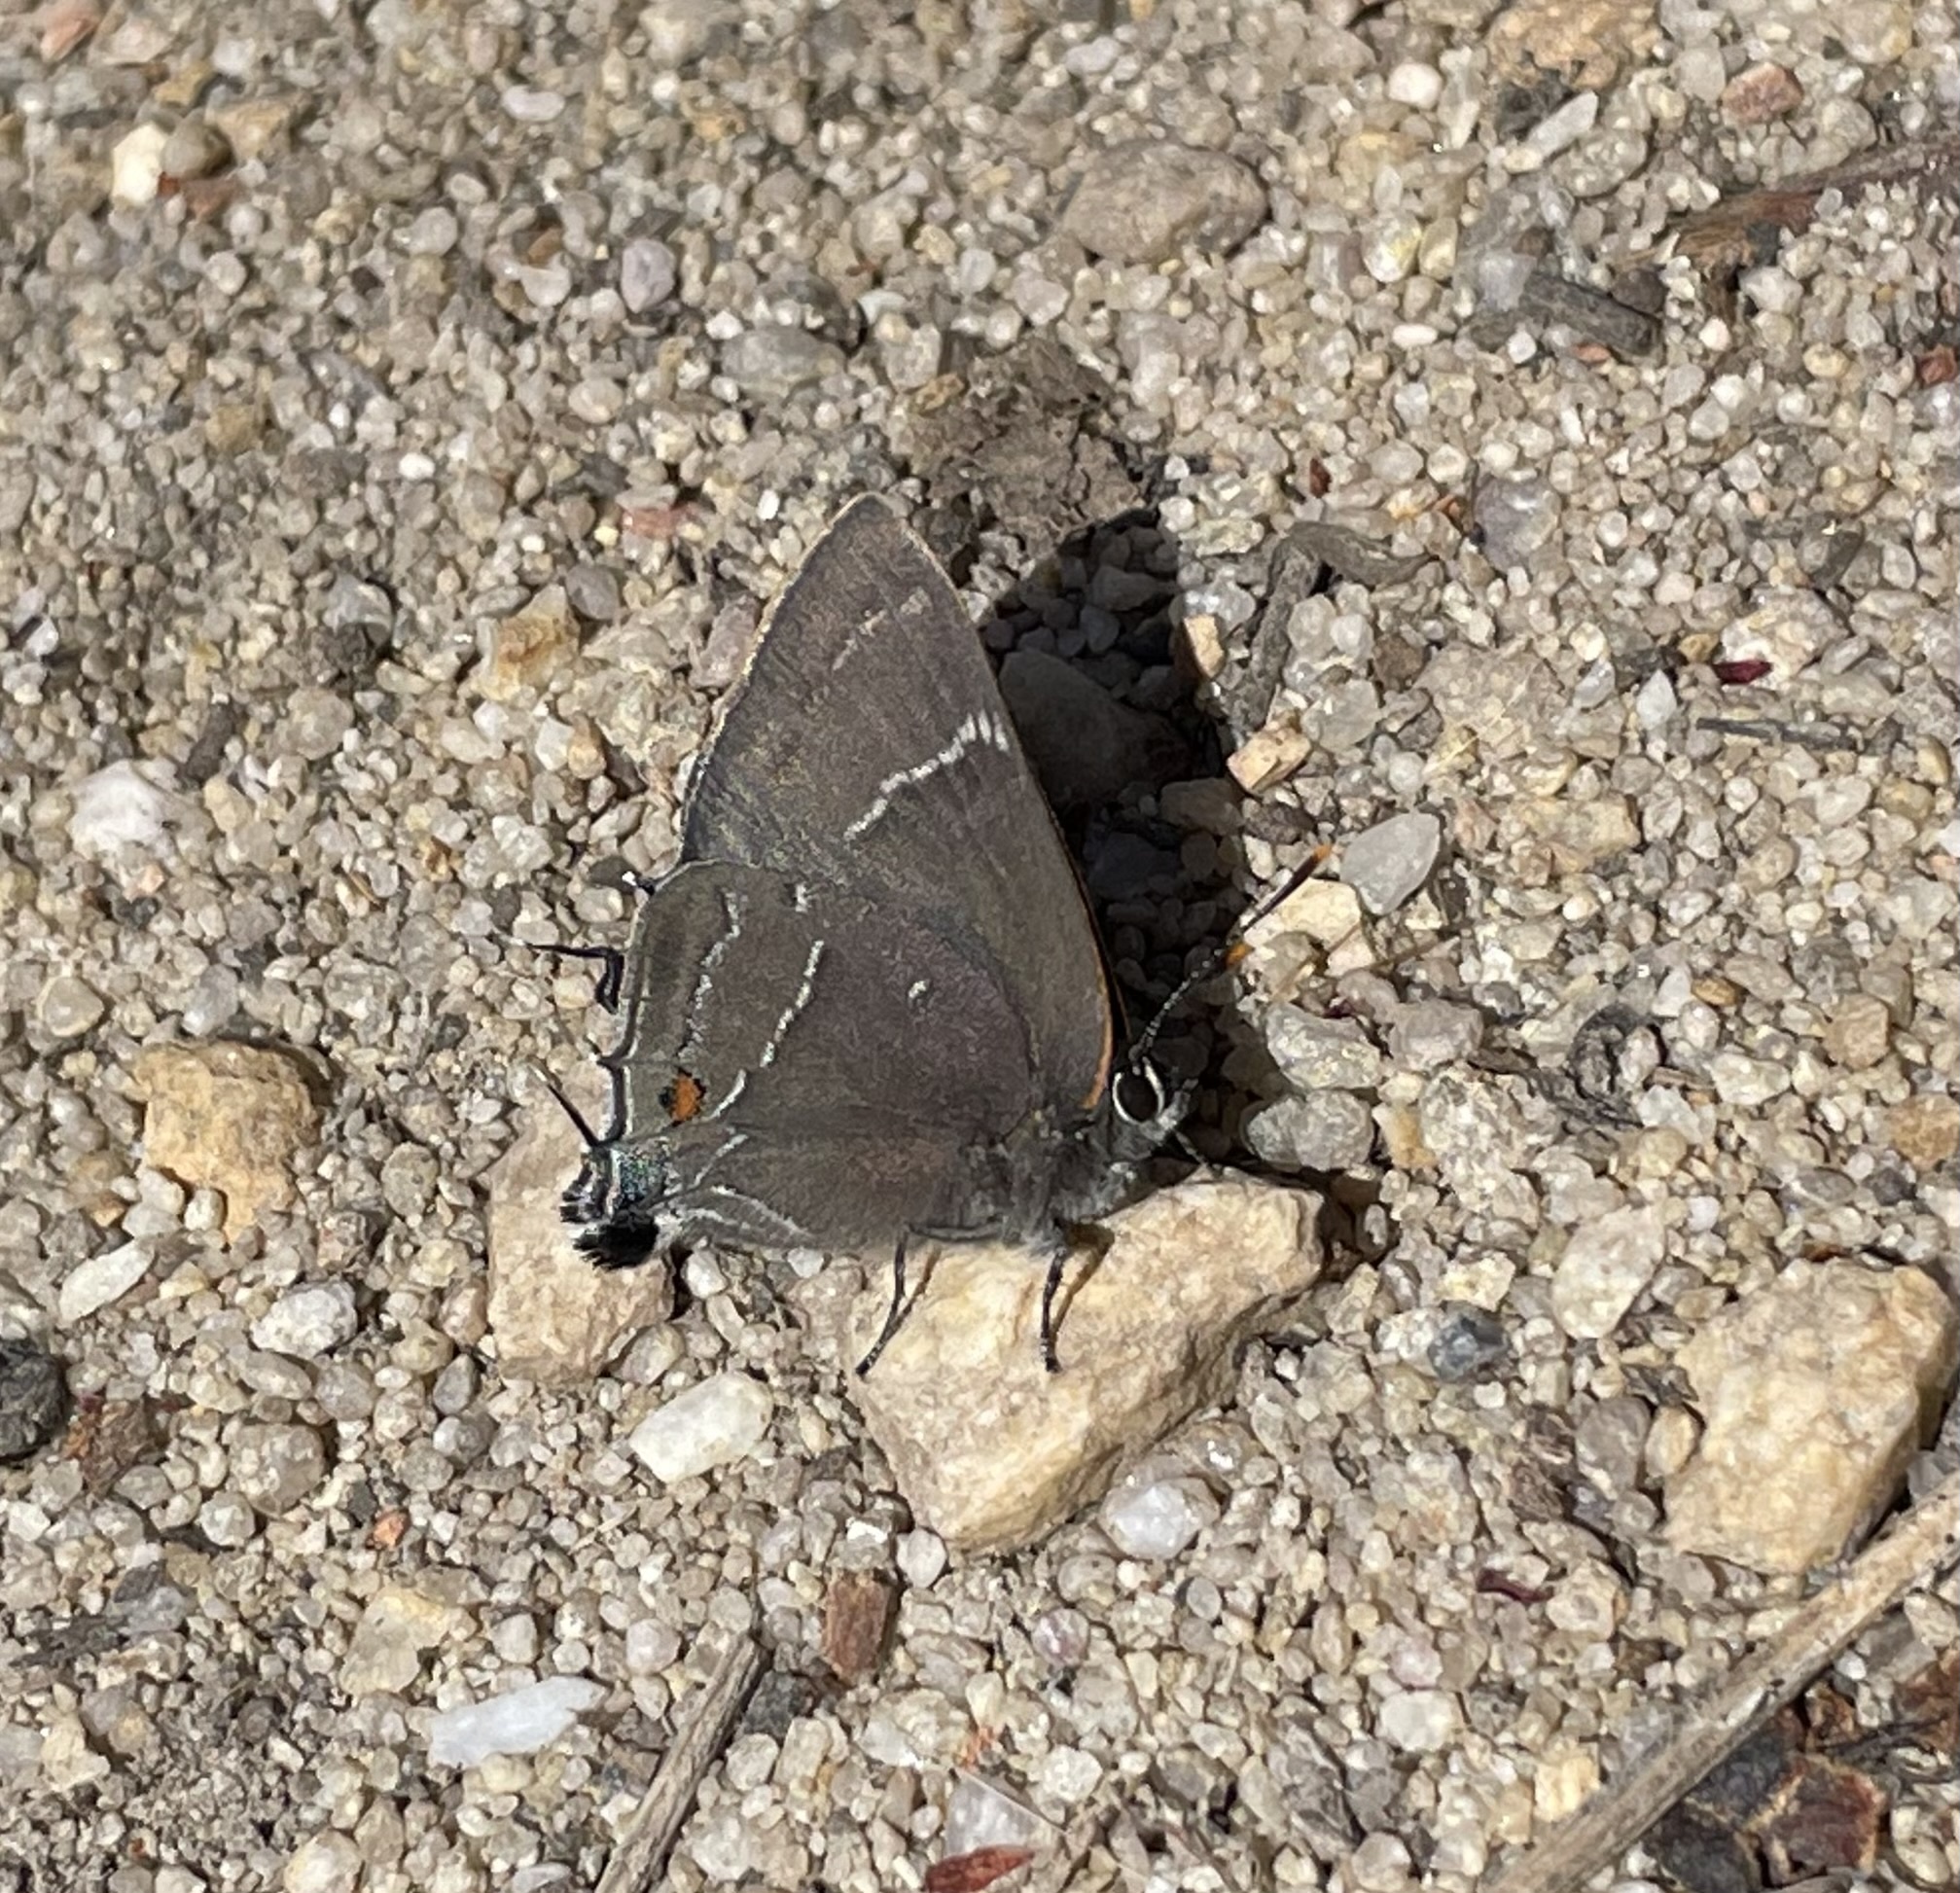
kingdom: Animalia
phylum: Arthropoda
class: Insecta
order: Lepidoptera
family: Lycaenidae
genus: Parrhasius
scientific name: Parrhasius m-album
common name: White m hairstreak
